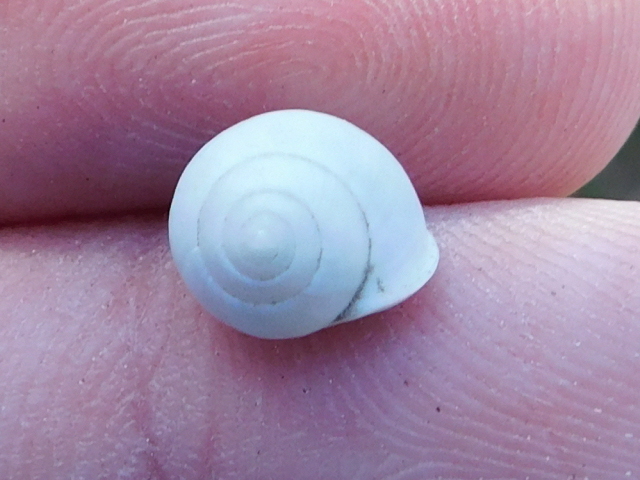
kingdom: Animalia
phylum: Mollusca
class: Gastropoda
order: Cycloneritida
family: Helicinidae
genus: Helicina
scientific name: Helicina orbiculata
